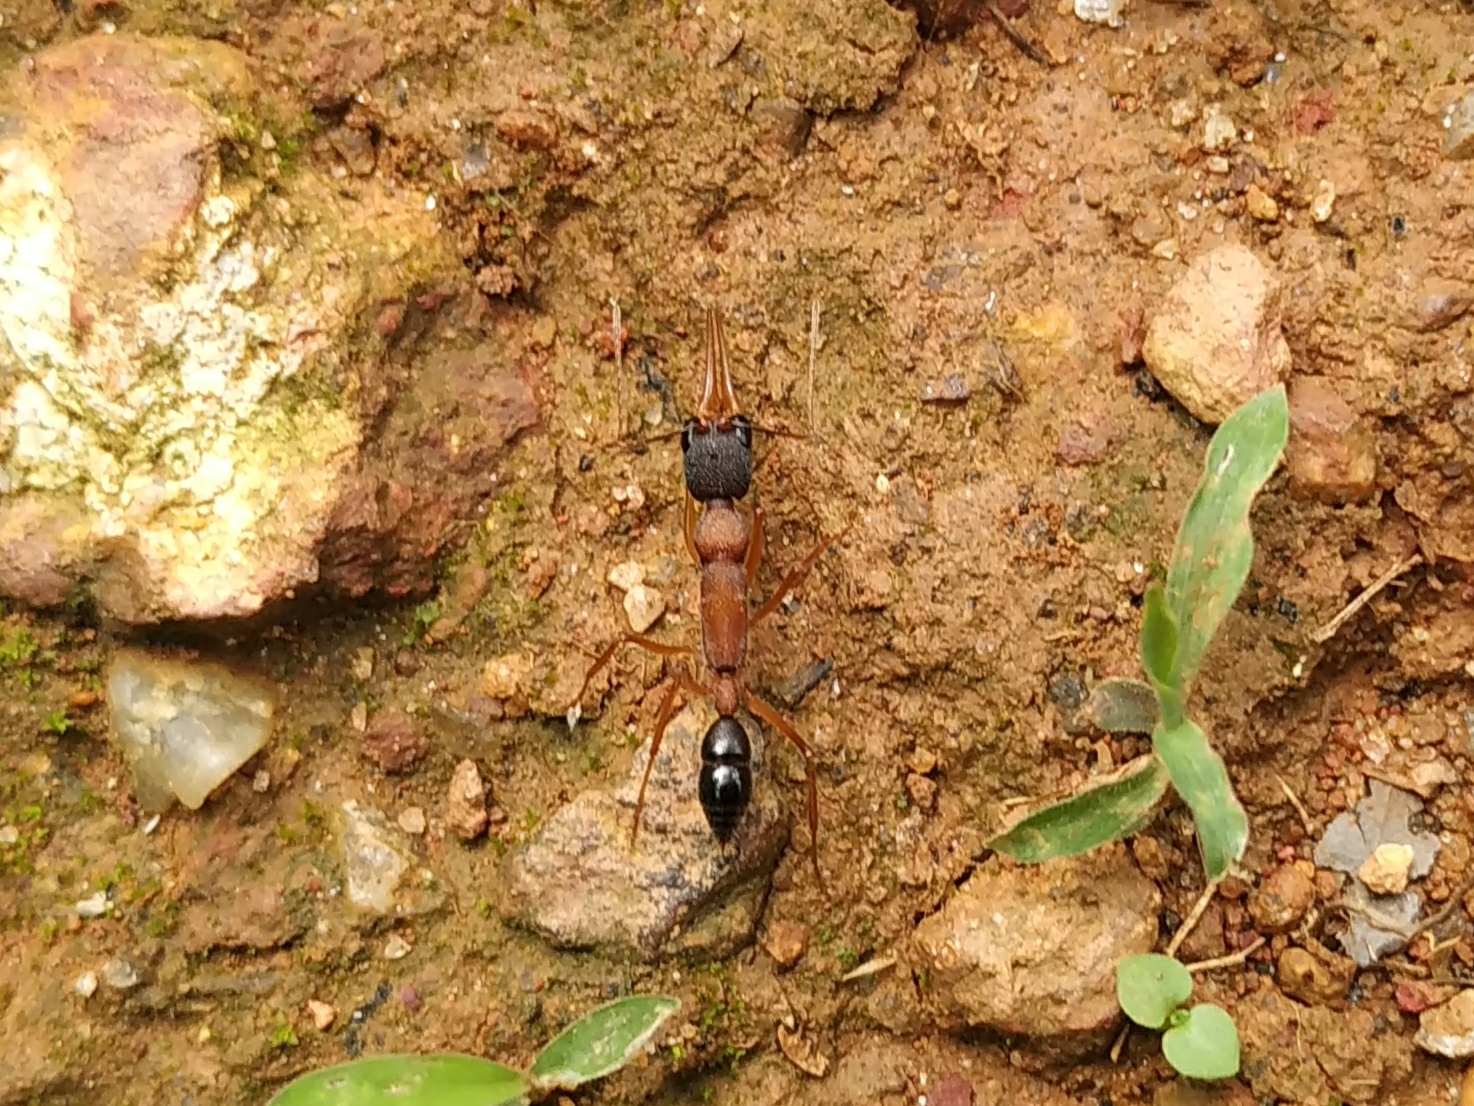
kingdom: Animalia
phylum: Arthropoda
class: Insecta
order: Hymenoptera
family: Formicidae
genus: Harpegnathos
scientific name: Harpegnathos saltator
